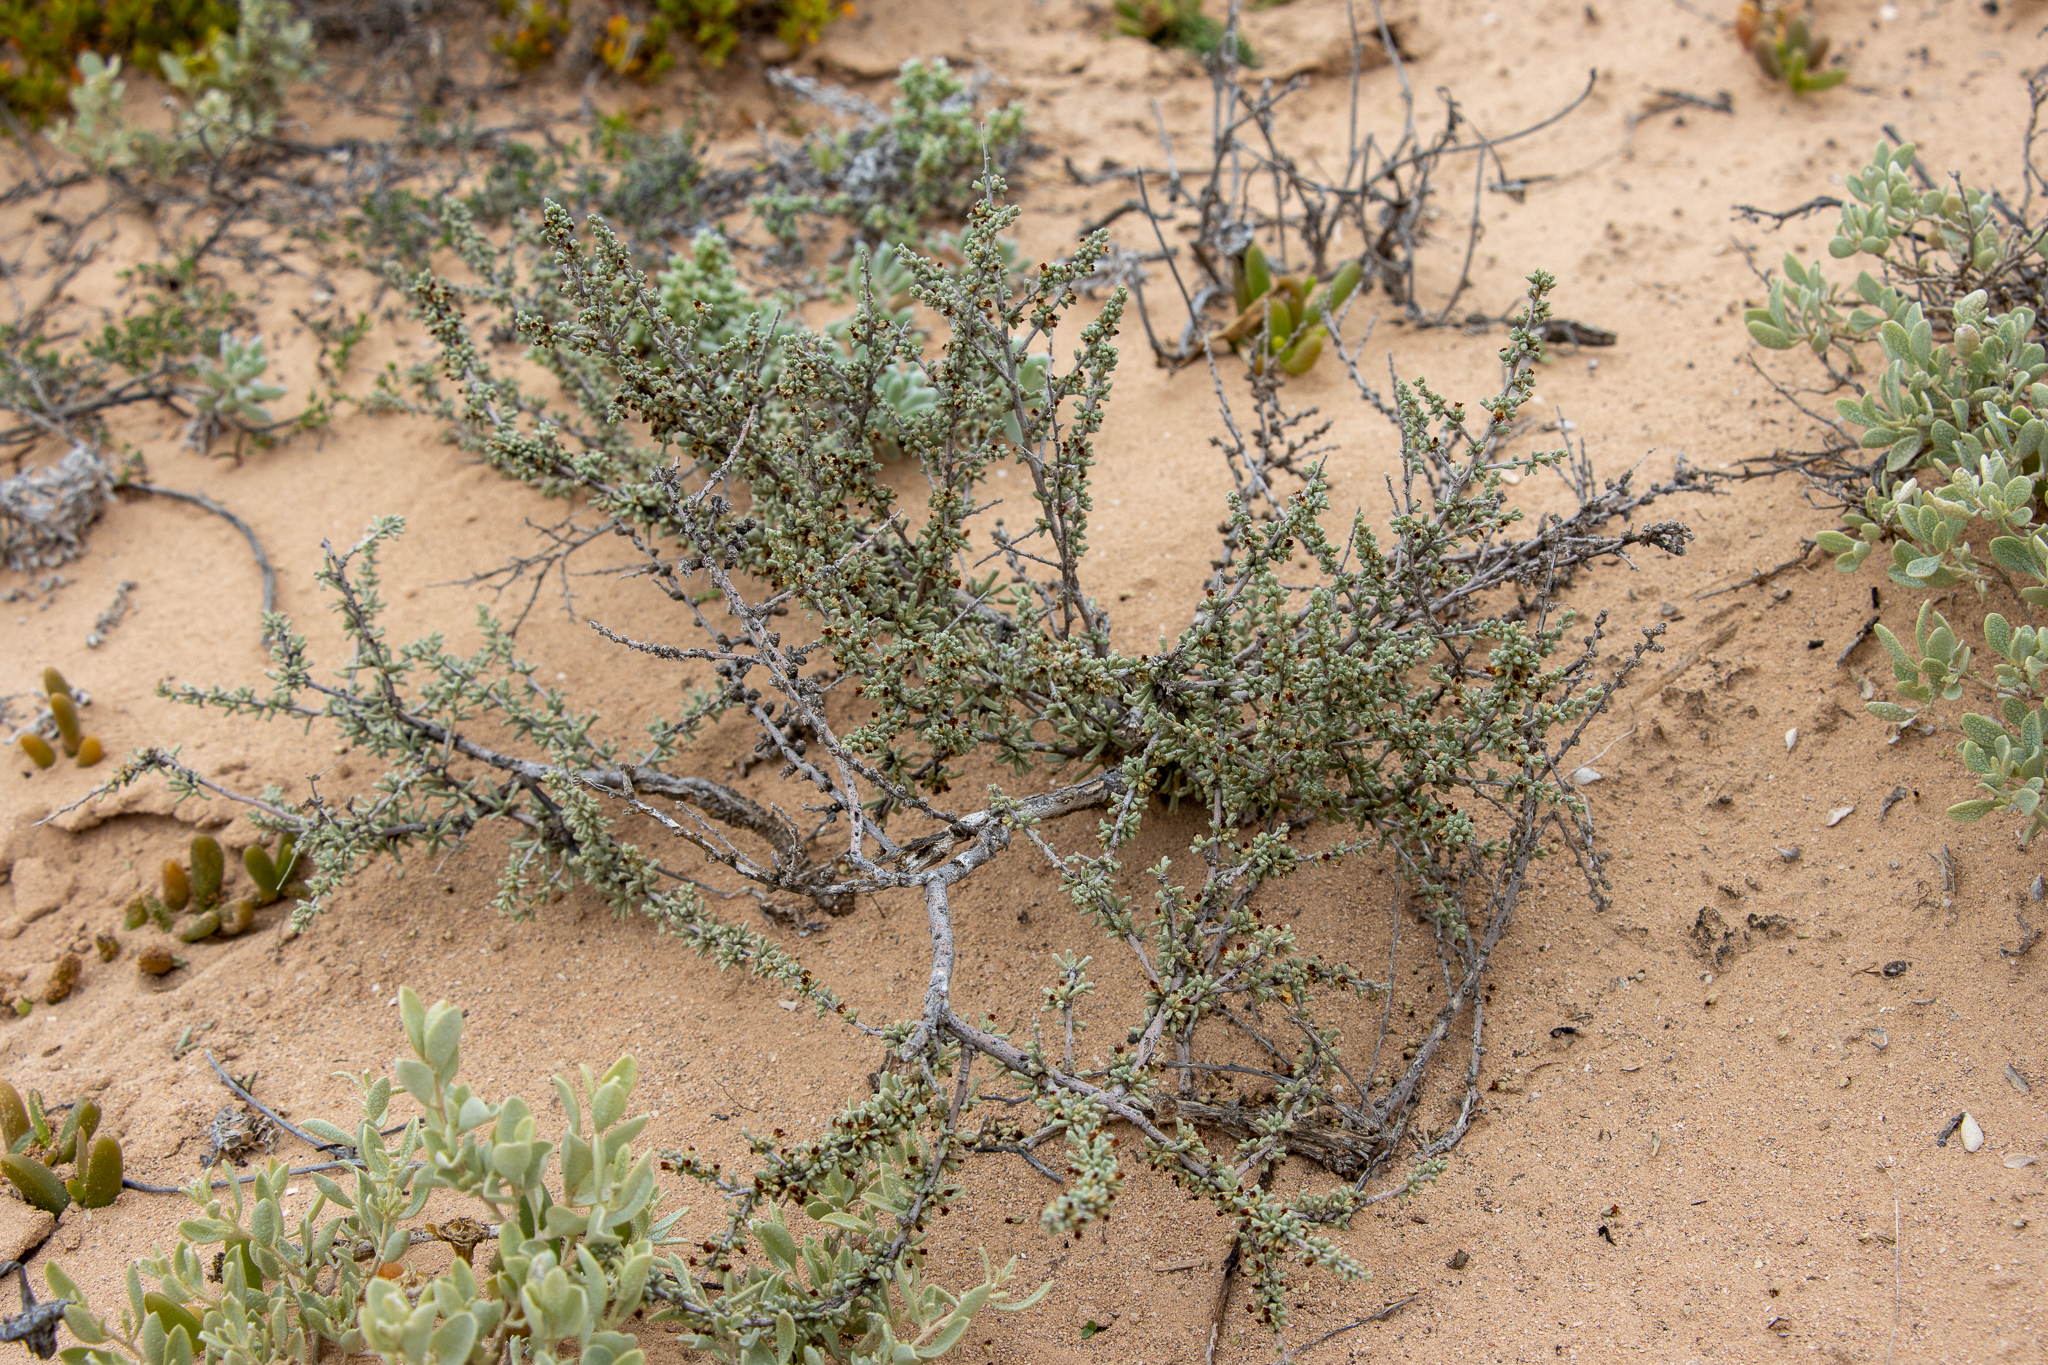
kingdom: Plantae
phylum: Tracheophyta
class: Magnoliopsida
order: Malvales
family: Malvaceae
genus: Lawrencia
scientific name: Lawrencia squamata
